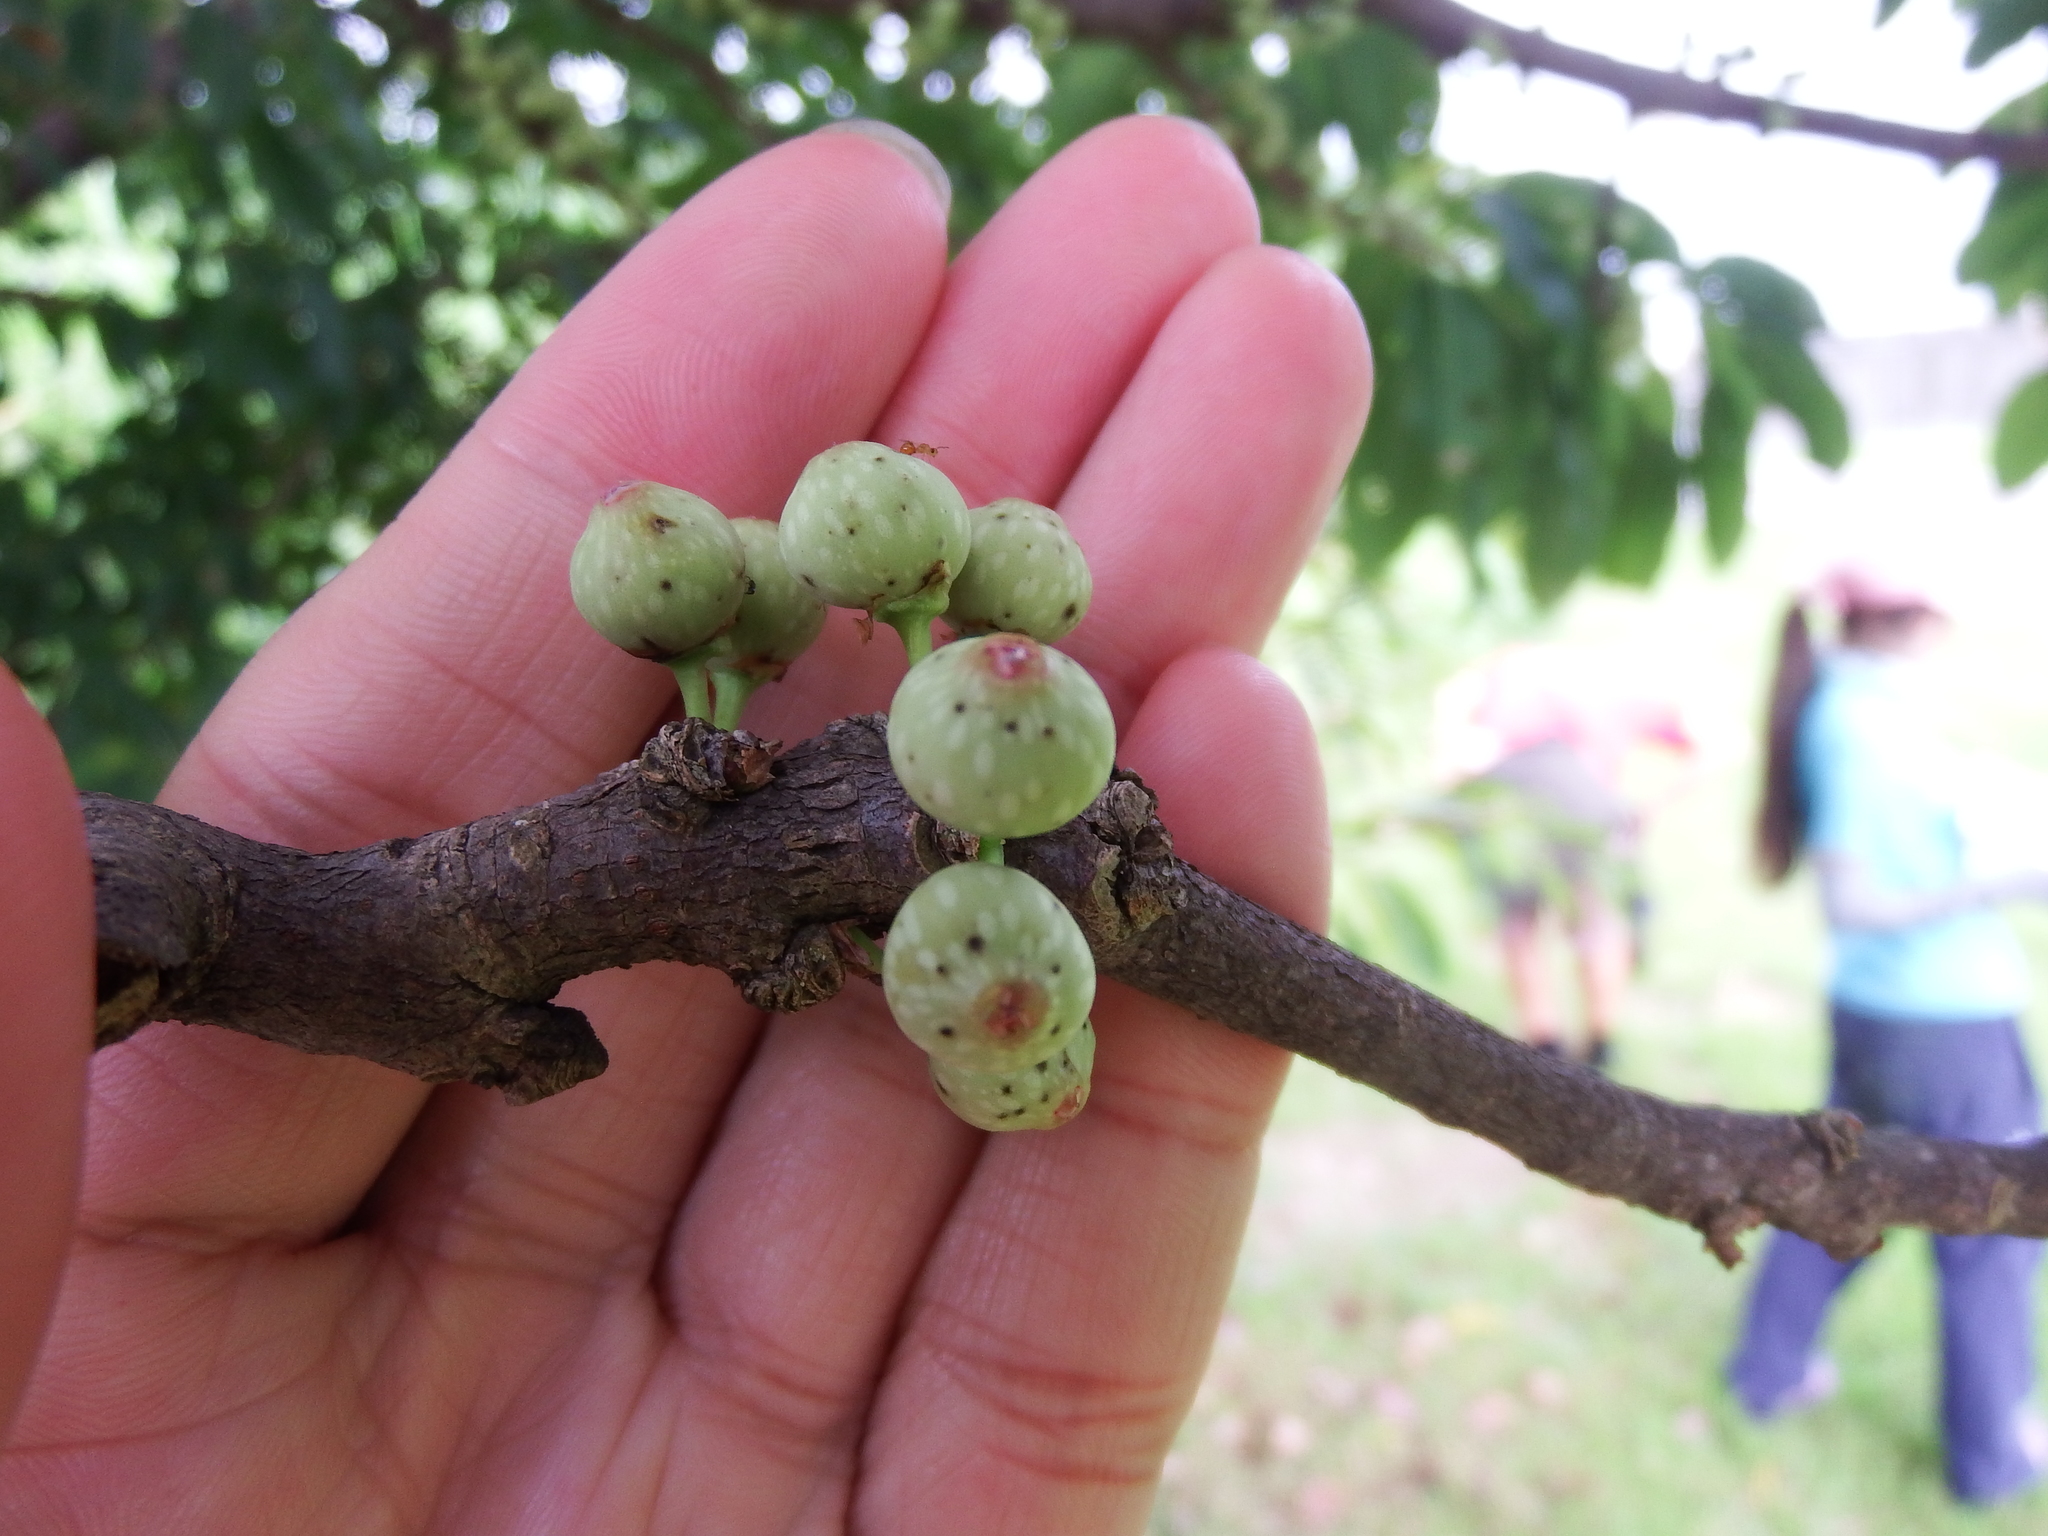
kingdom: Plantae
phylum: Tracheophyta
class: Magnoliopsida
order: Rosales
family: Moraceae
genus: Ficus
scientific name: Ficus subpisocarpa
